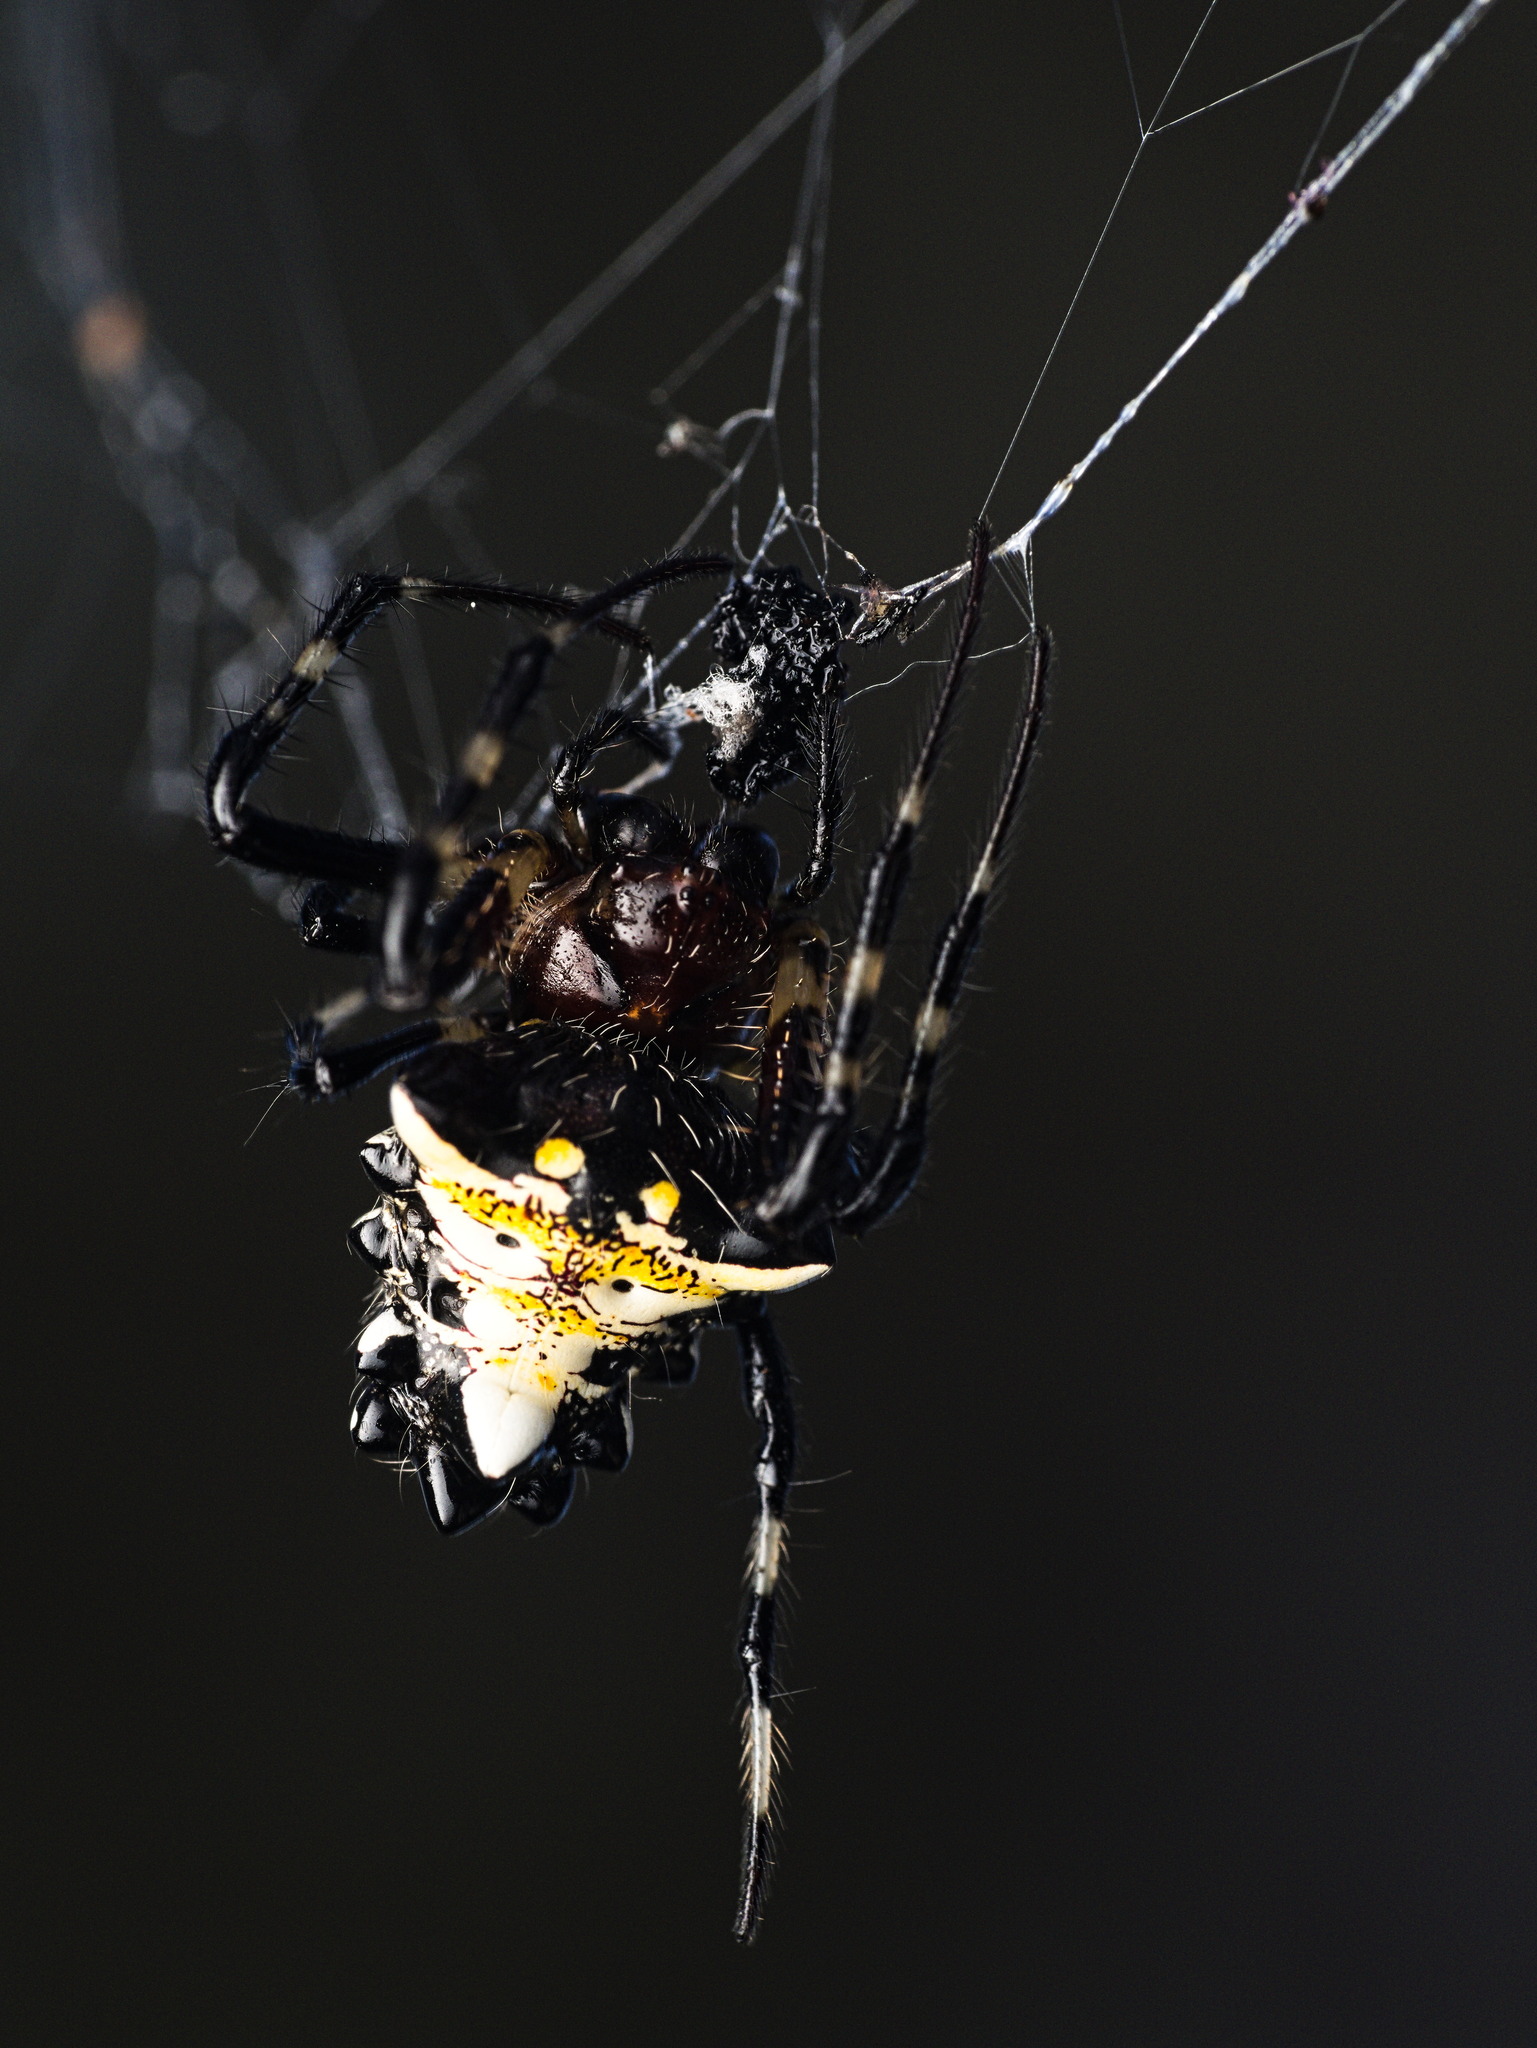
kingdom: Animalia
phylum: Arthropoda
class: Arachnida
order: Araneae
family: Araneidae
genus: Verrucosa
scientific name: Verrucosa arenata
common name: Orb weavers
